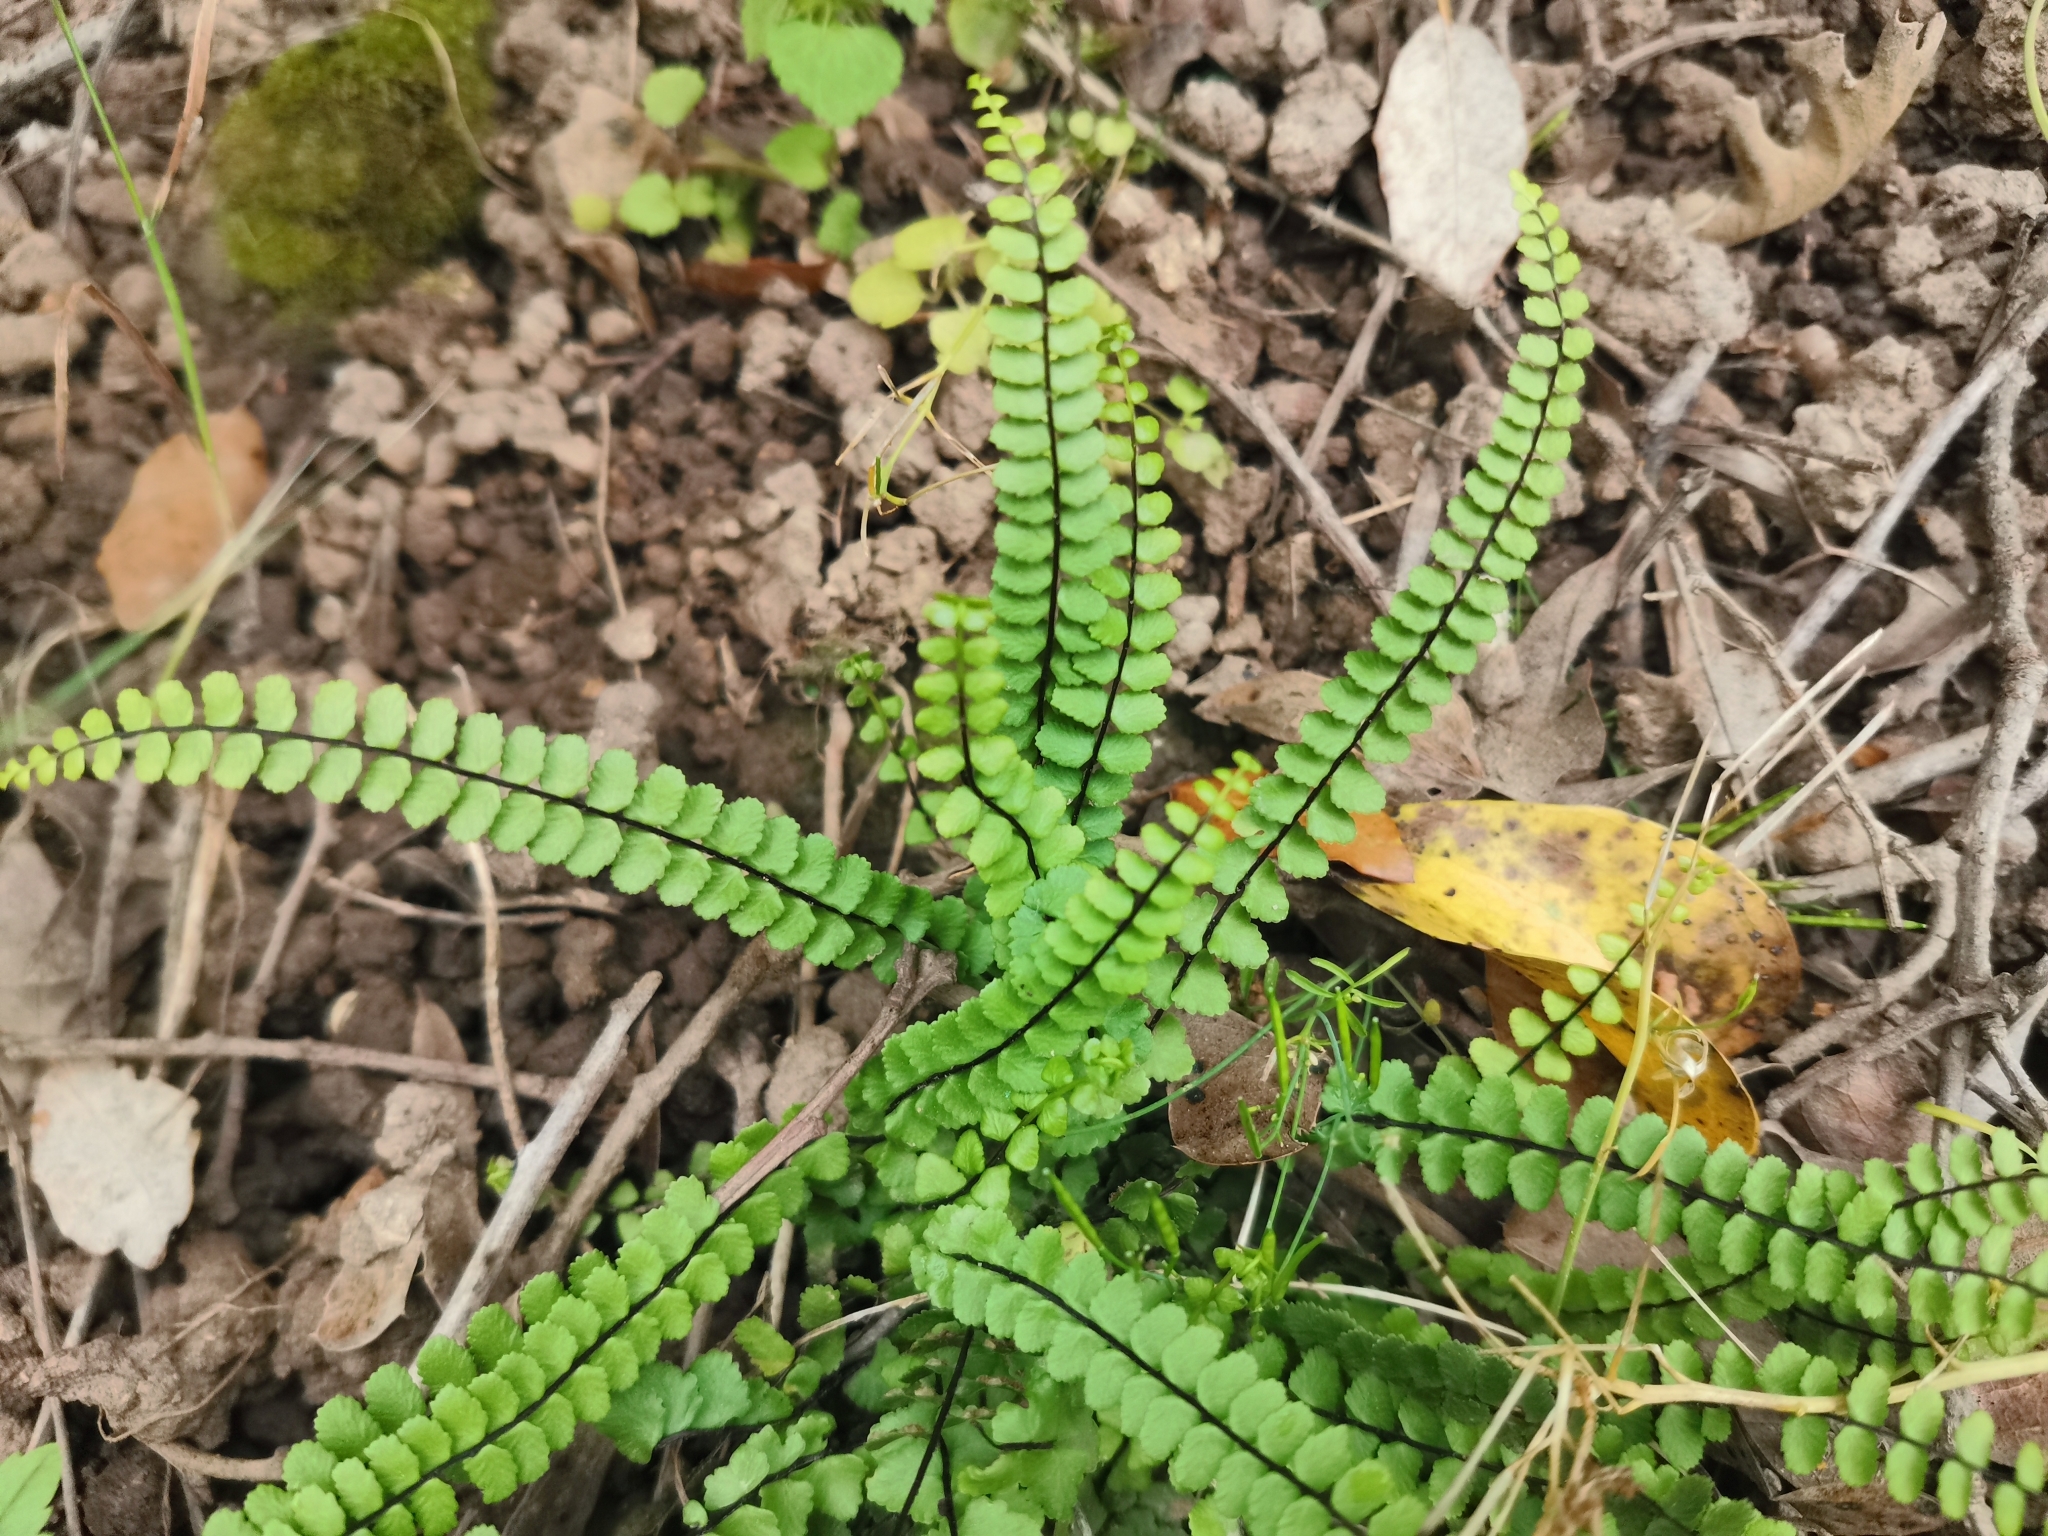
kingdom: Plantae
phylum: Tracheophyta
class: Polypodiopsida
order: Polypodiales
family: Aspleniaceae
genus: Asplenium
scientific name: Asplenium trichomanes
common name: Maidenhair spleenwort
